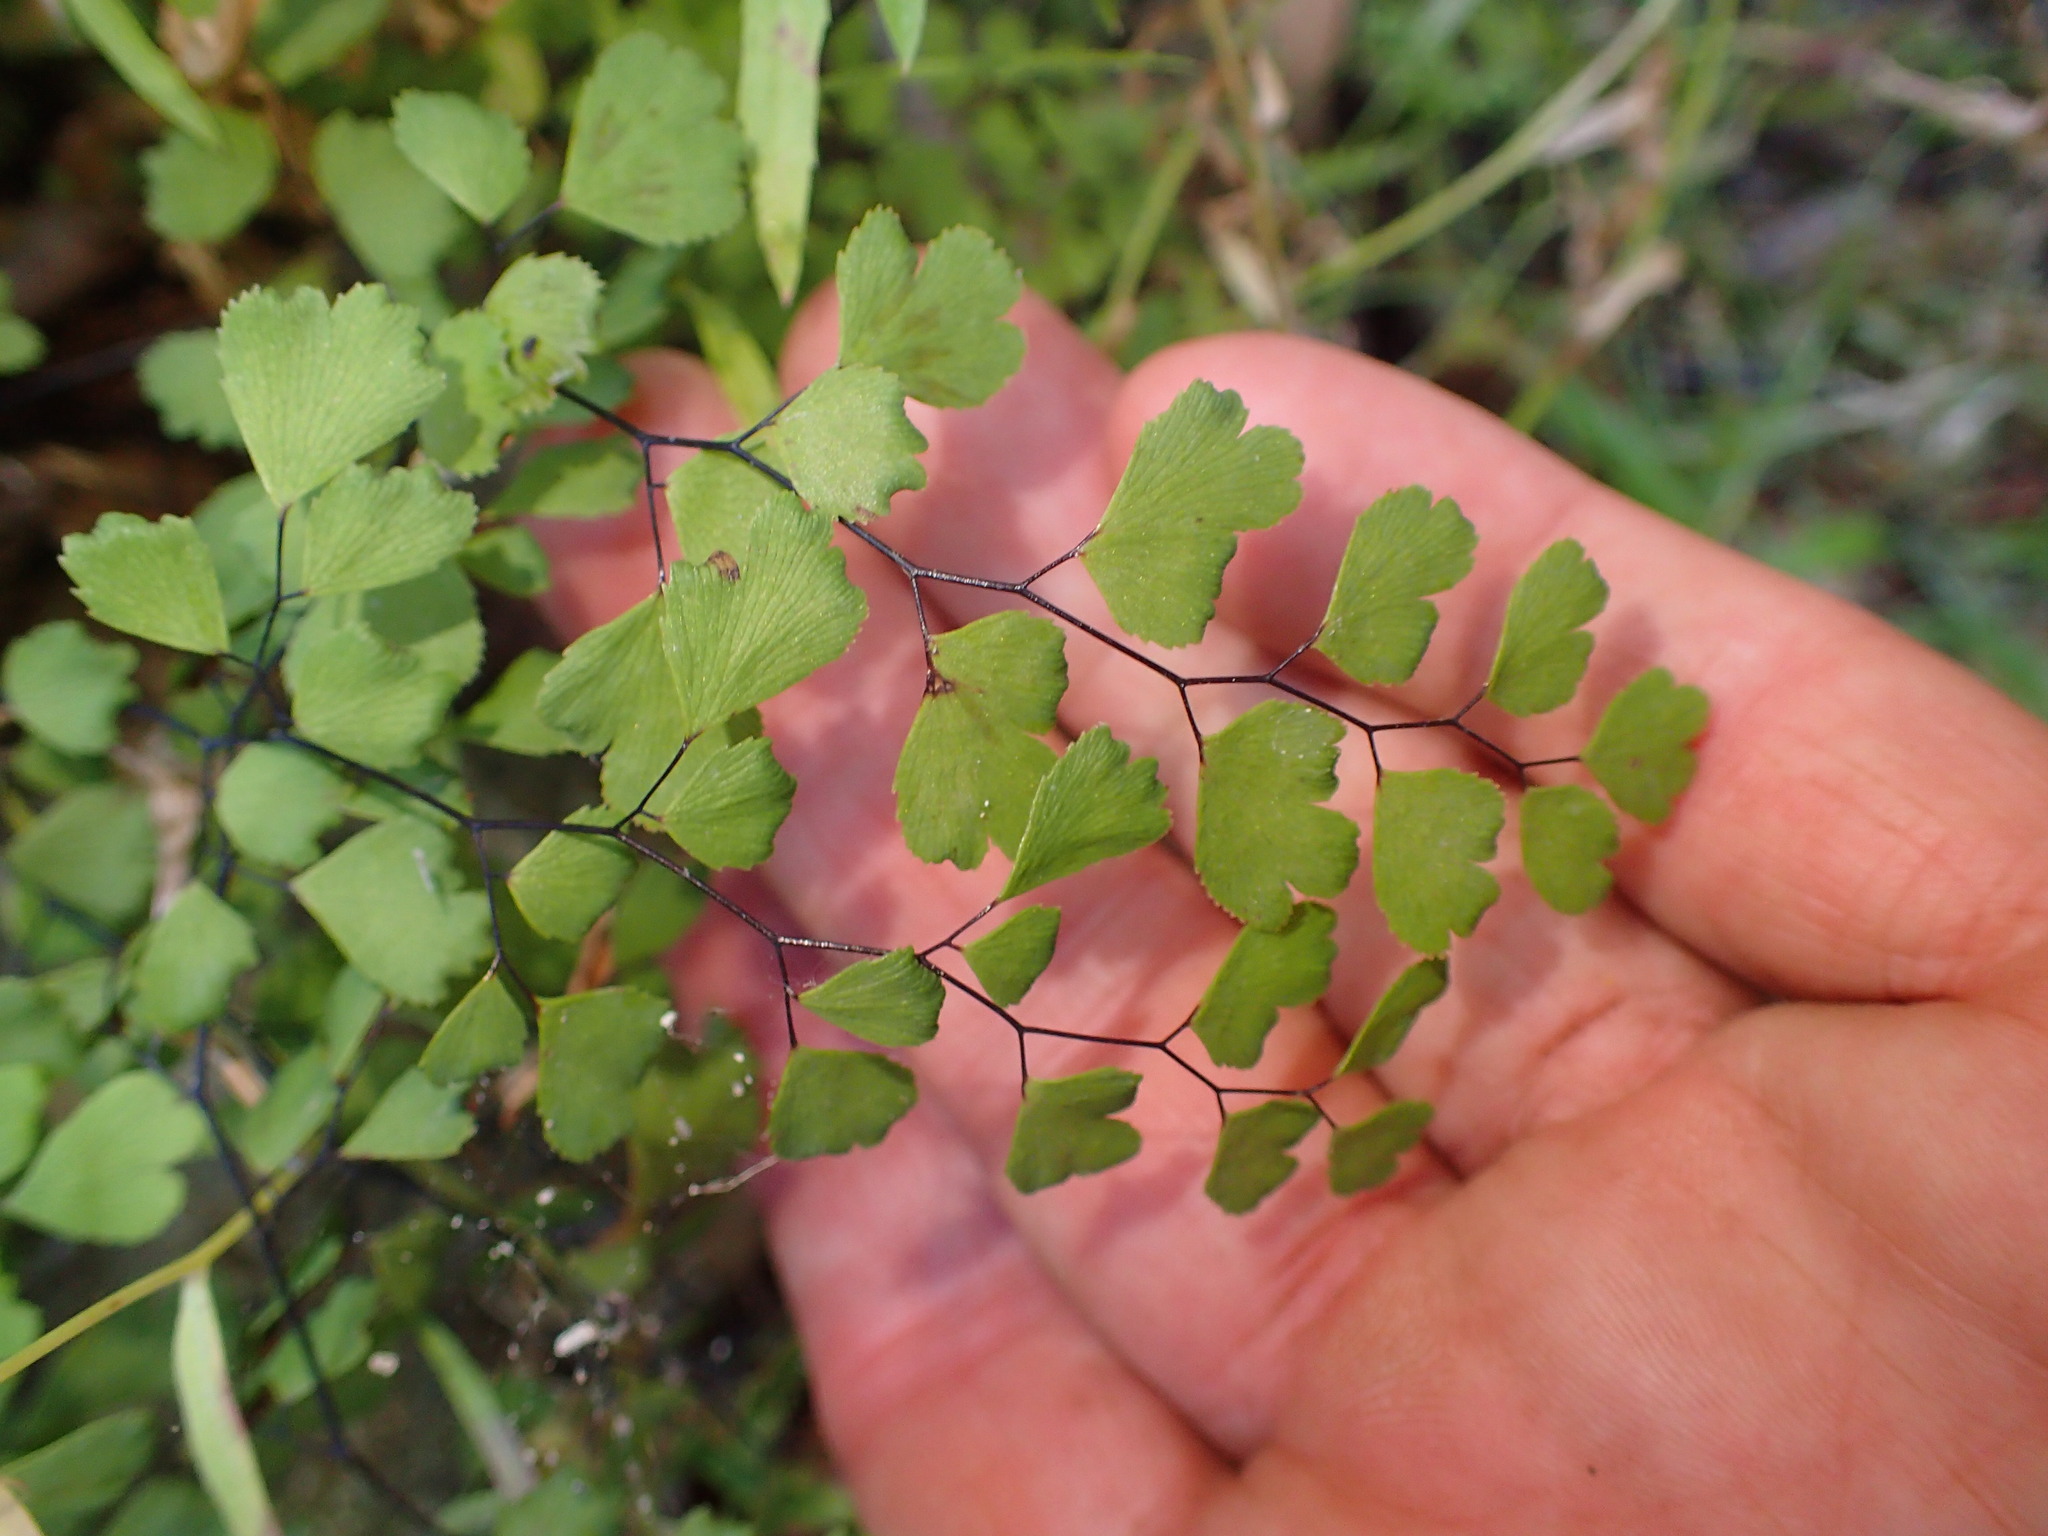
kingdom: Plantae
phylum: Tracheophyta
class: Polypodiopsida
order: Polypodiales
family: Pteridaceae
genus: Adiantum
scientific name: Adiantum capillus-veneris
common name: Maidenhair fern
